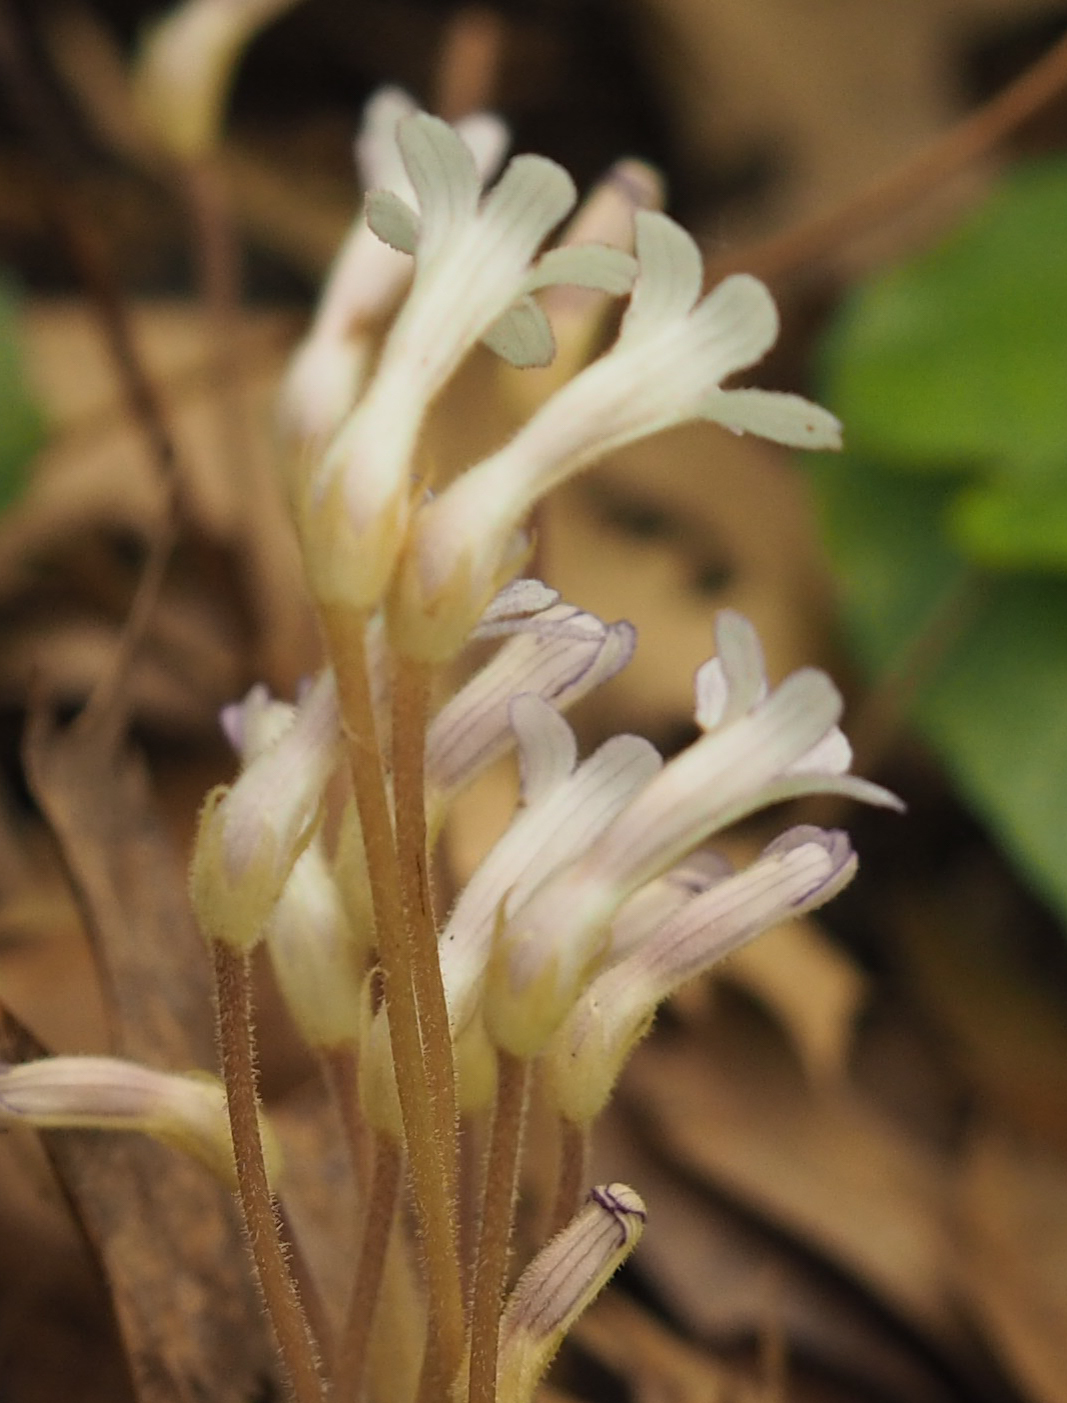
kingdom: Plantae
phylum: Tracheophyta
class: Magnoliopsida
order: Lamiales
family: Orobanchaceae
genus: Aphyllon
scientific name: Aphyllon uniflorum
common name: One-flowered broomrape
